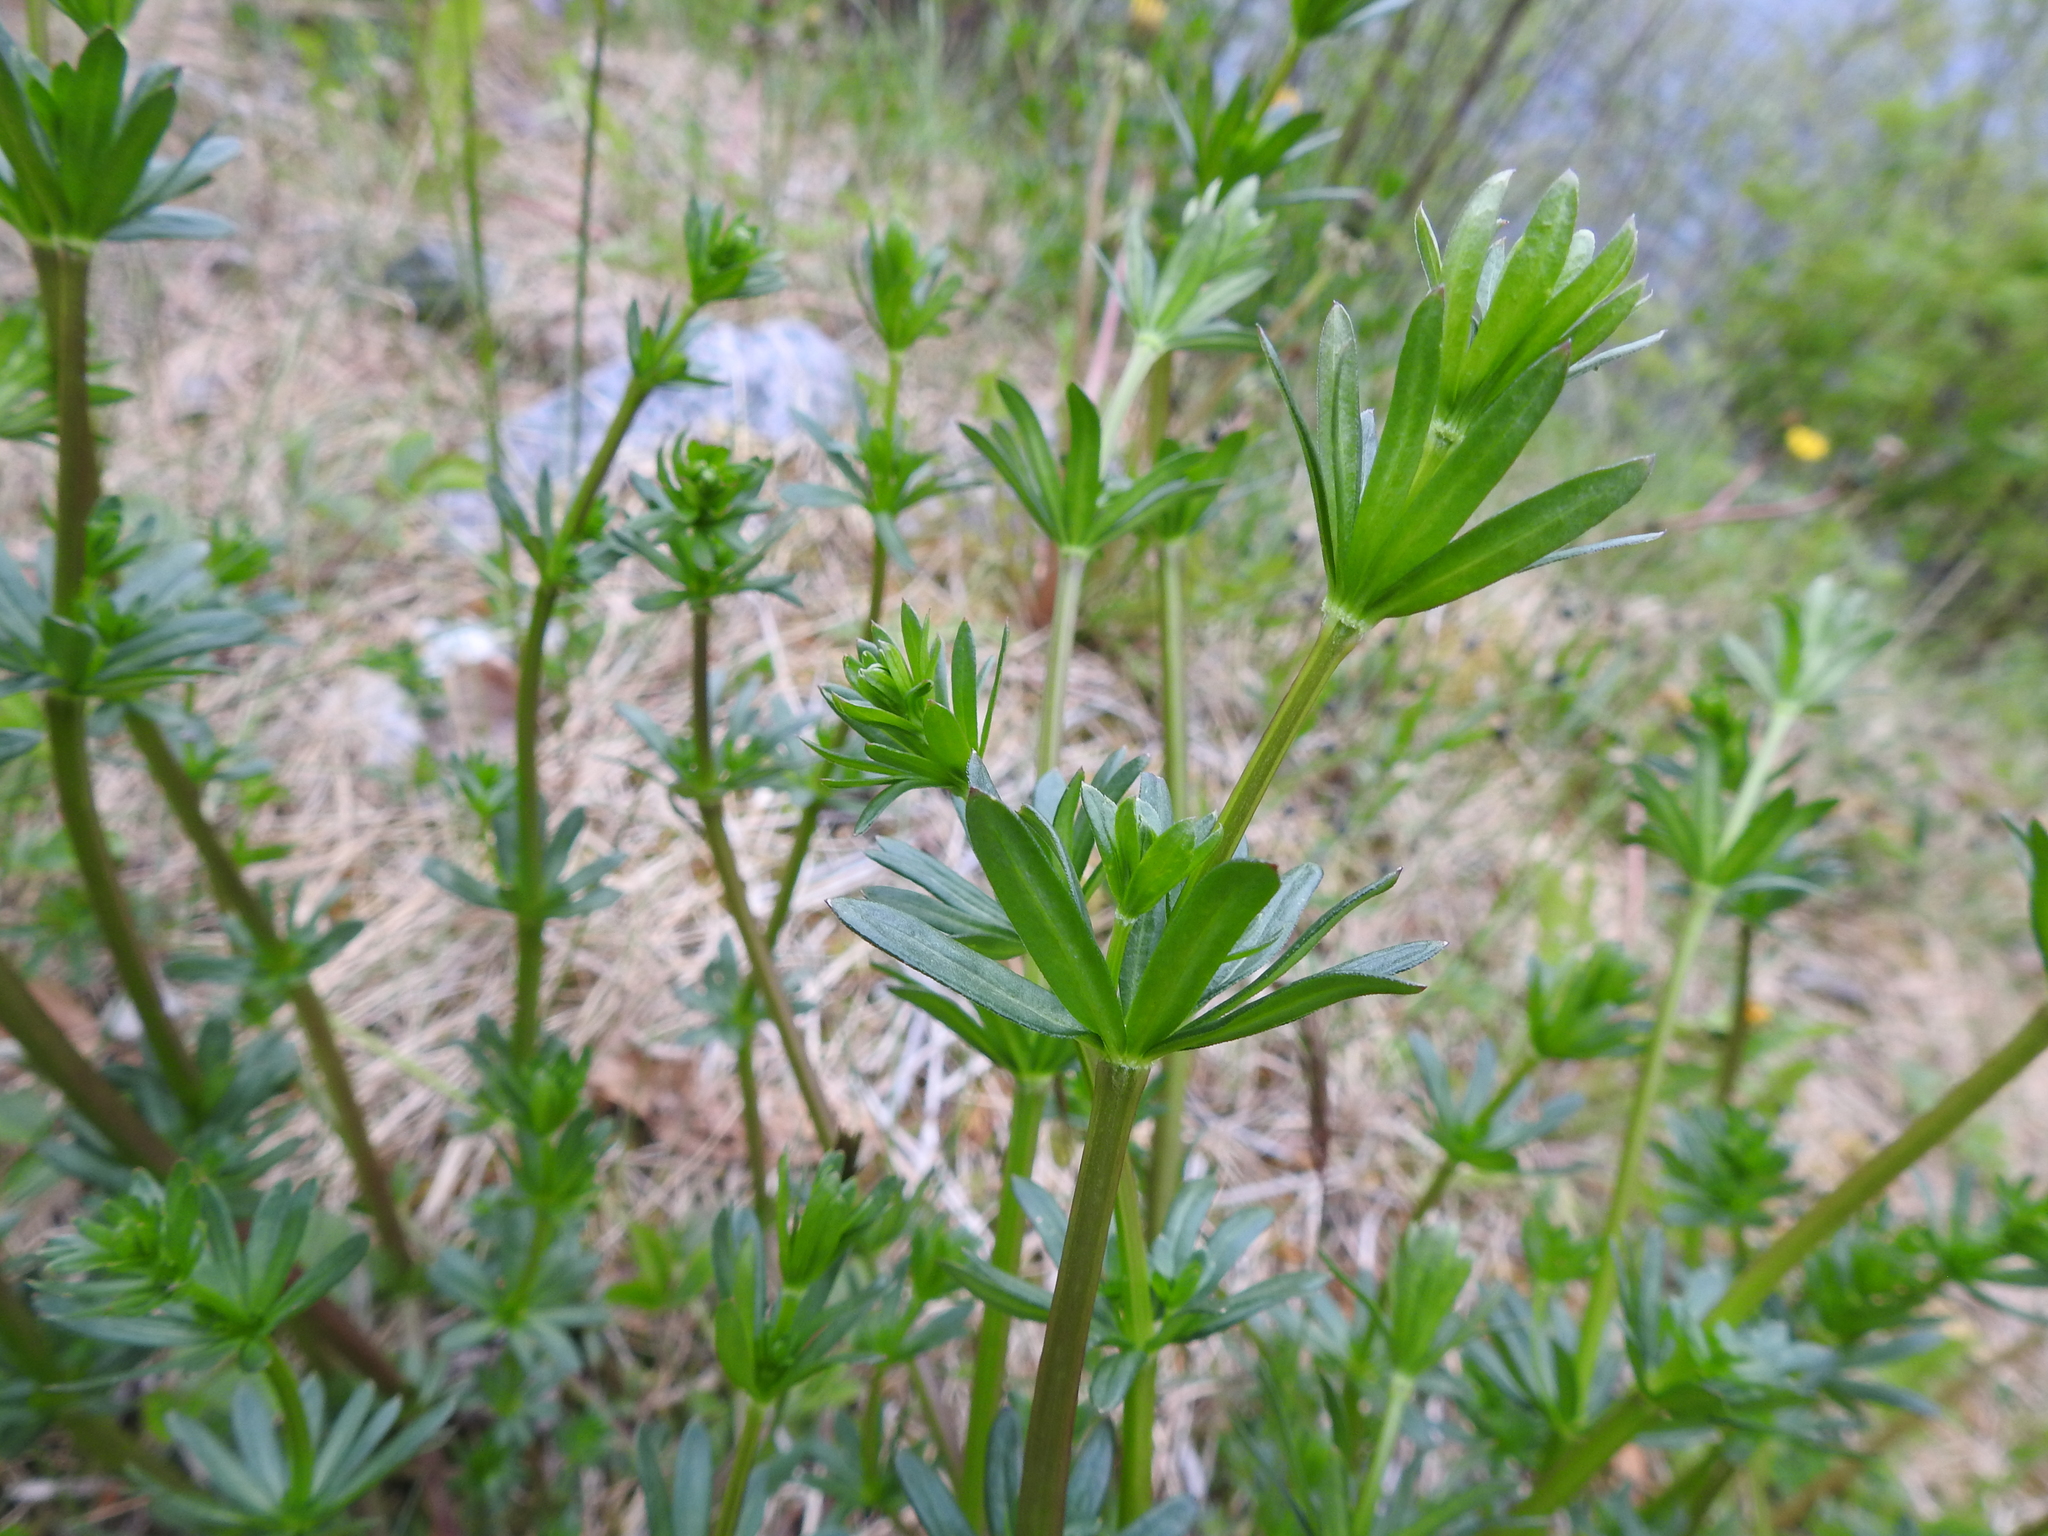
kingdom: Plantae
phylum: Tracheophyta
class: Magnoliopsida
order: Gentianales
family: Rubiaceae
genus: Galium
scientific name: Galium album
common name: White bedstraw
